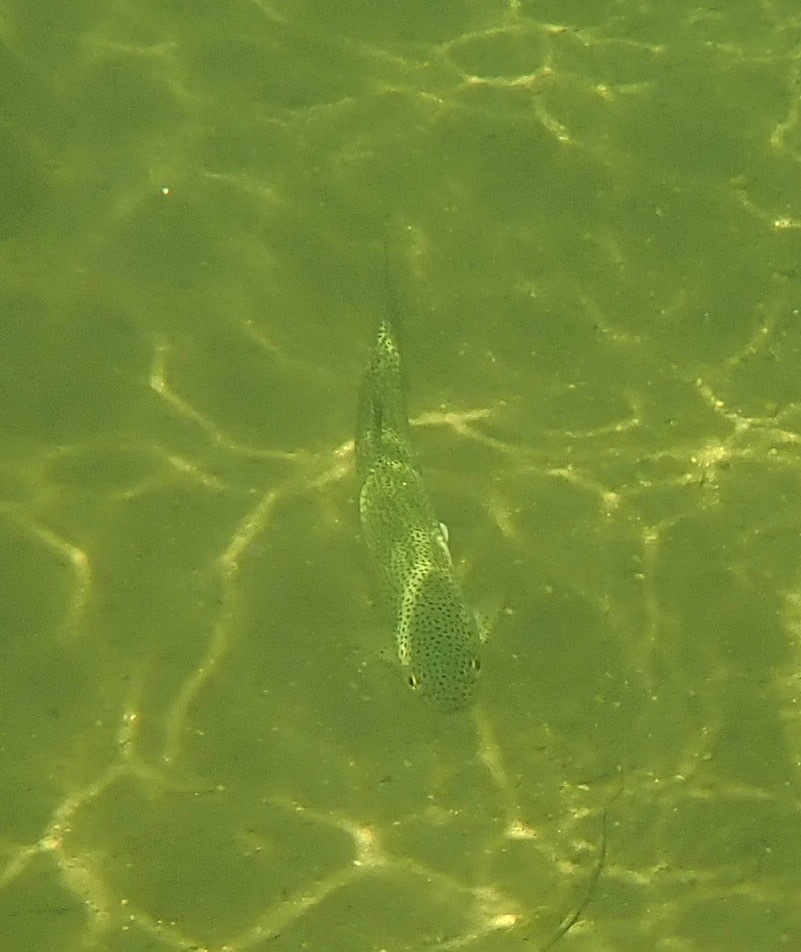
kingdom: Animalia
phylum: Chordata
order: Salmoniformes
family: Salmonidae
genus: Oncorhynchus
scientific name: Oncorhynchus mykiss
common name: Rainbow trout
